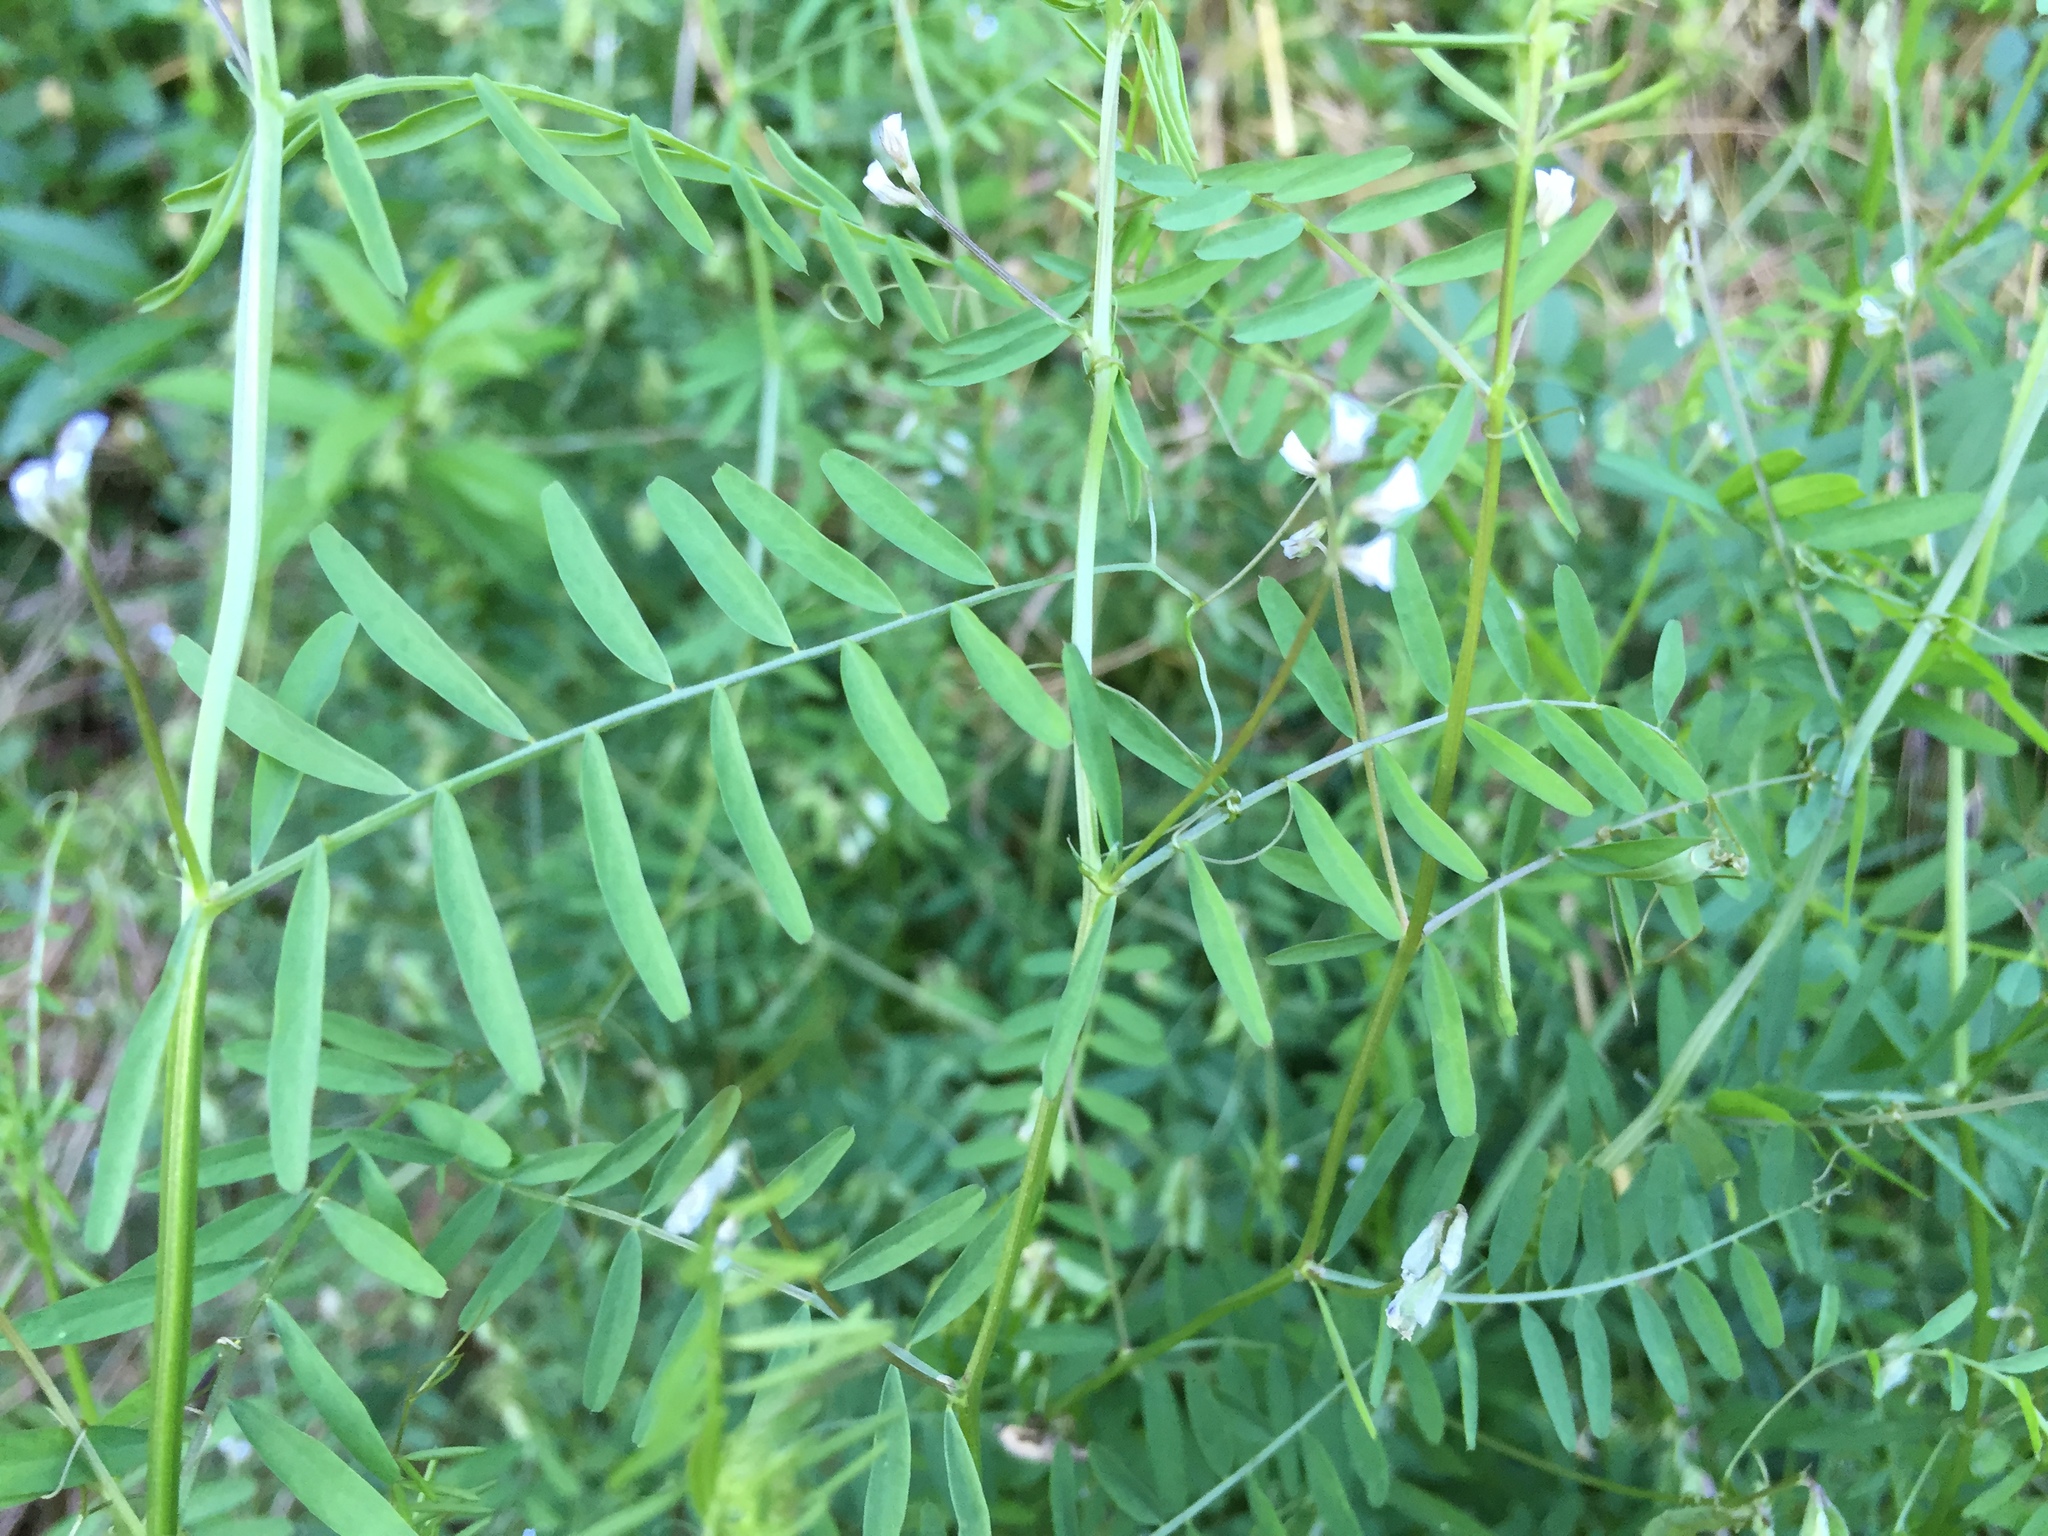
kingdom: Plantae
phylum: Tracheophyta
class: Magnoliopsida
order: Fabales
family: Fabaceae
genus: Vicia
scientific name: Vicia hirsuta
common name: Tiny vetch
